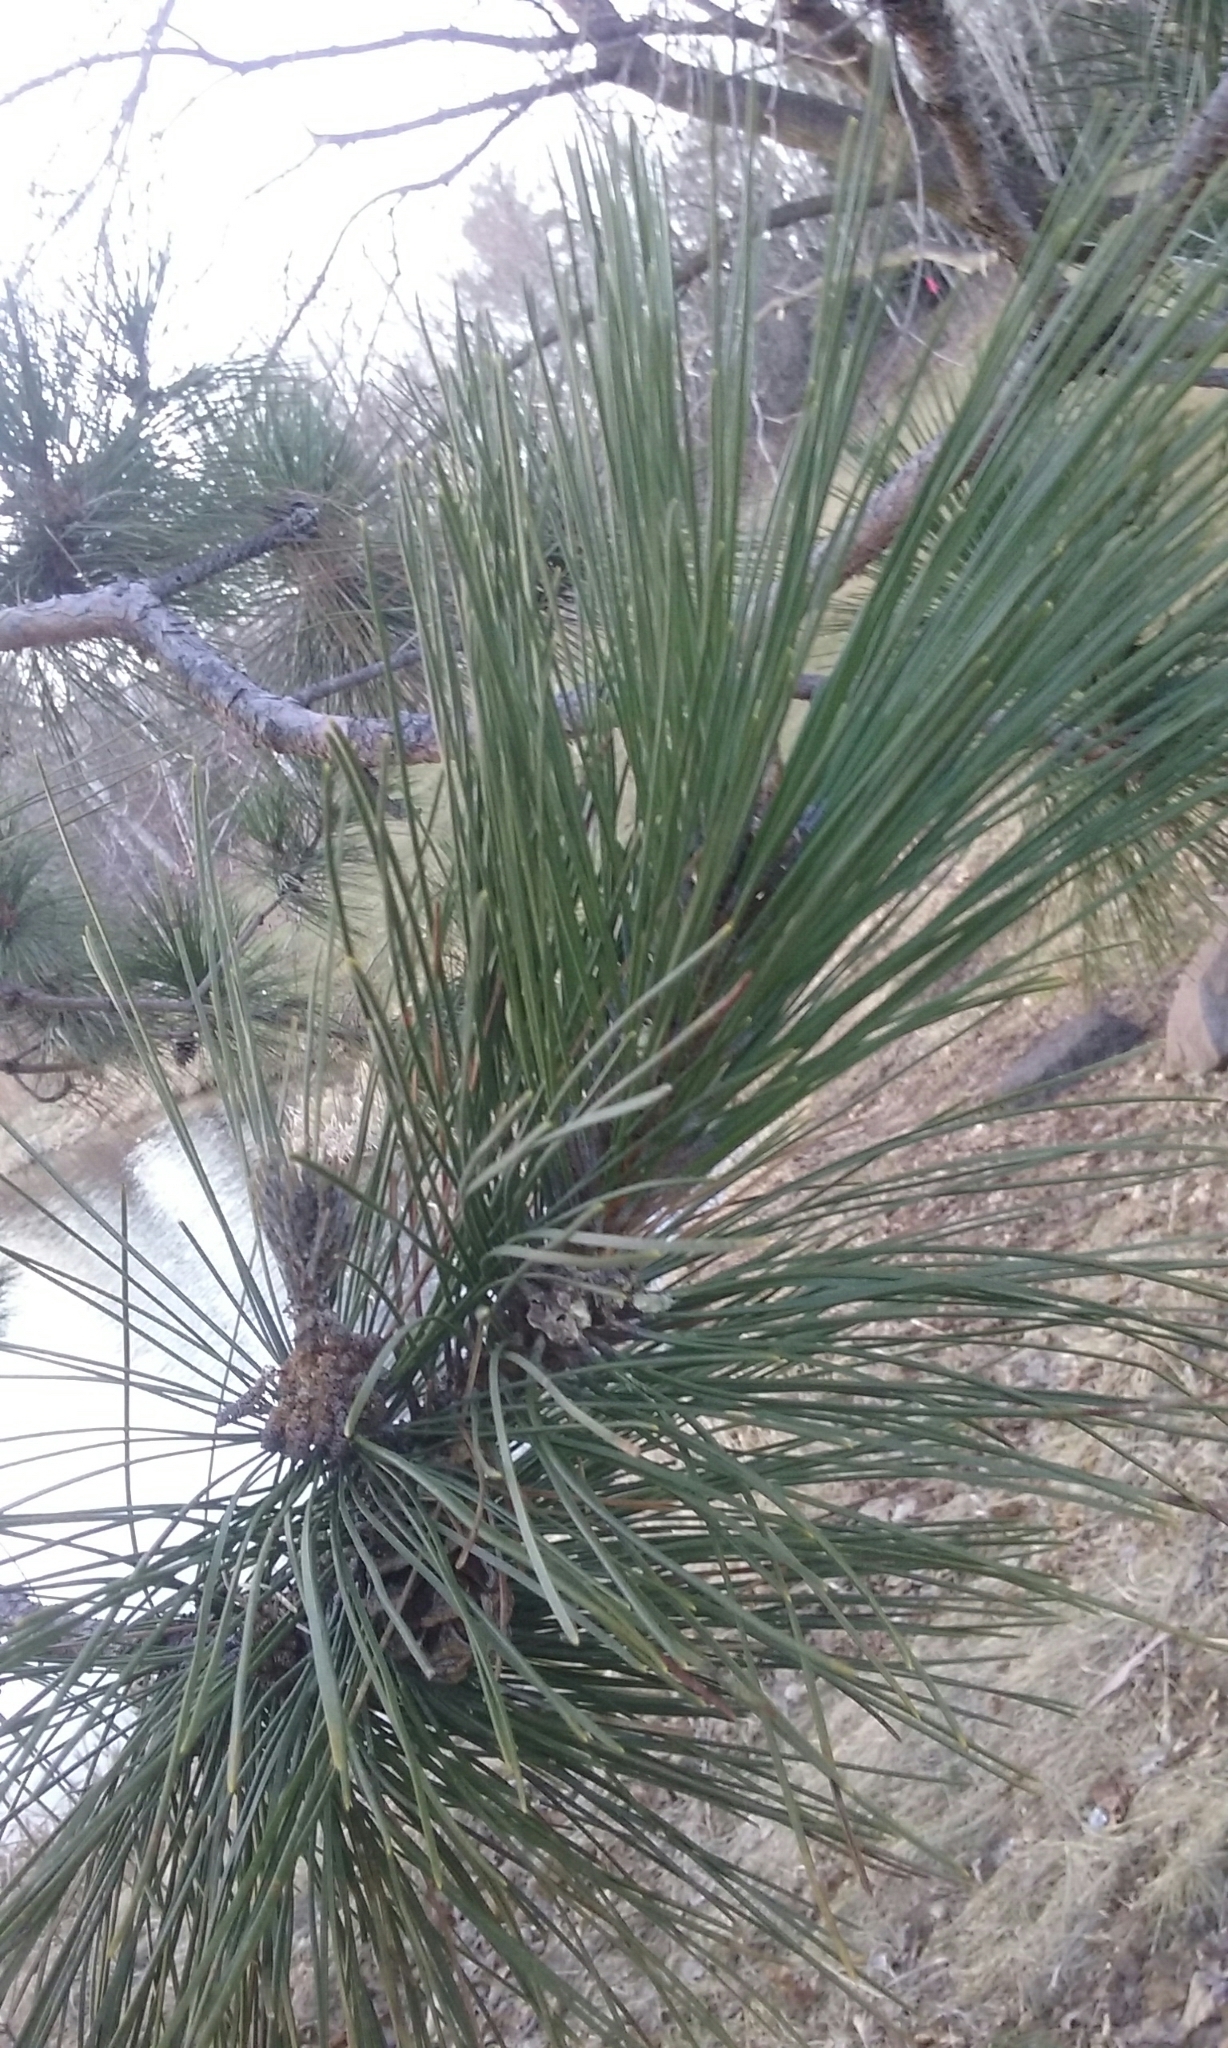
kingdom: Plantae
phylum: Tracheophyta
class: Pinopsida
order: Pinales
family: Pinaceae
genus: Pinus
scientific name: Pinus resinosa
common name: Norway pine
